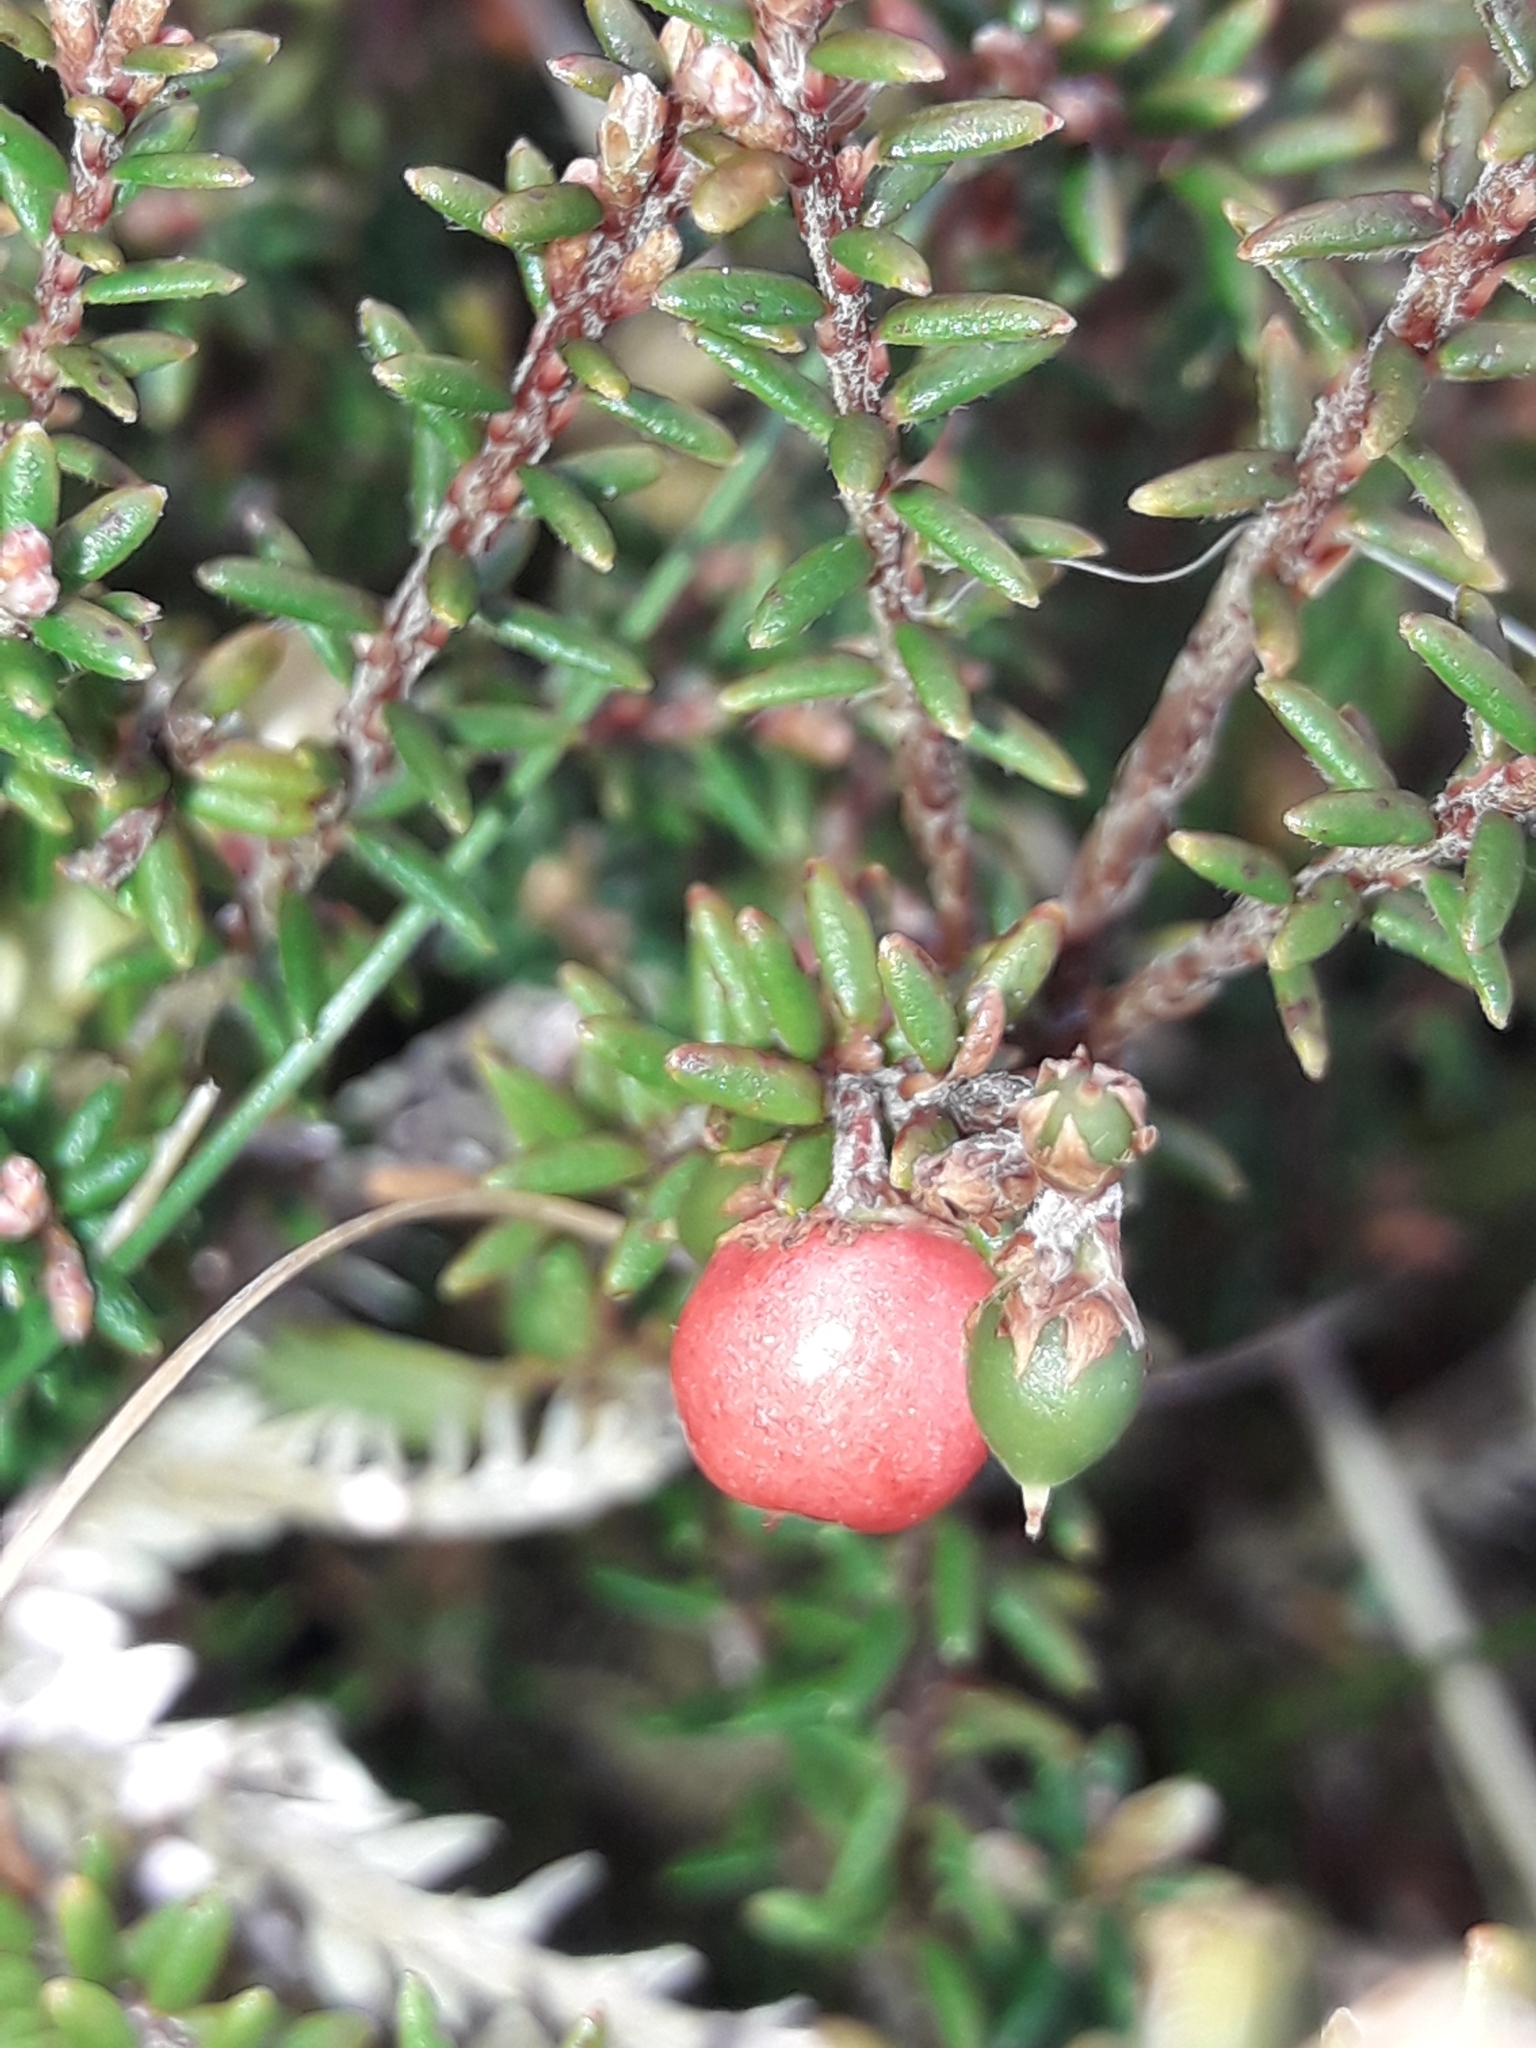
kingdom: Plantae
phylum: Tracheophyta
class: Magnoliopsida
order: Ericales
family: Ericaceae
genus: Androstoma
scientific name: Androstoma empetrifolia
